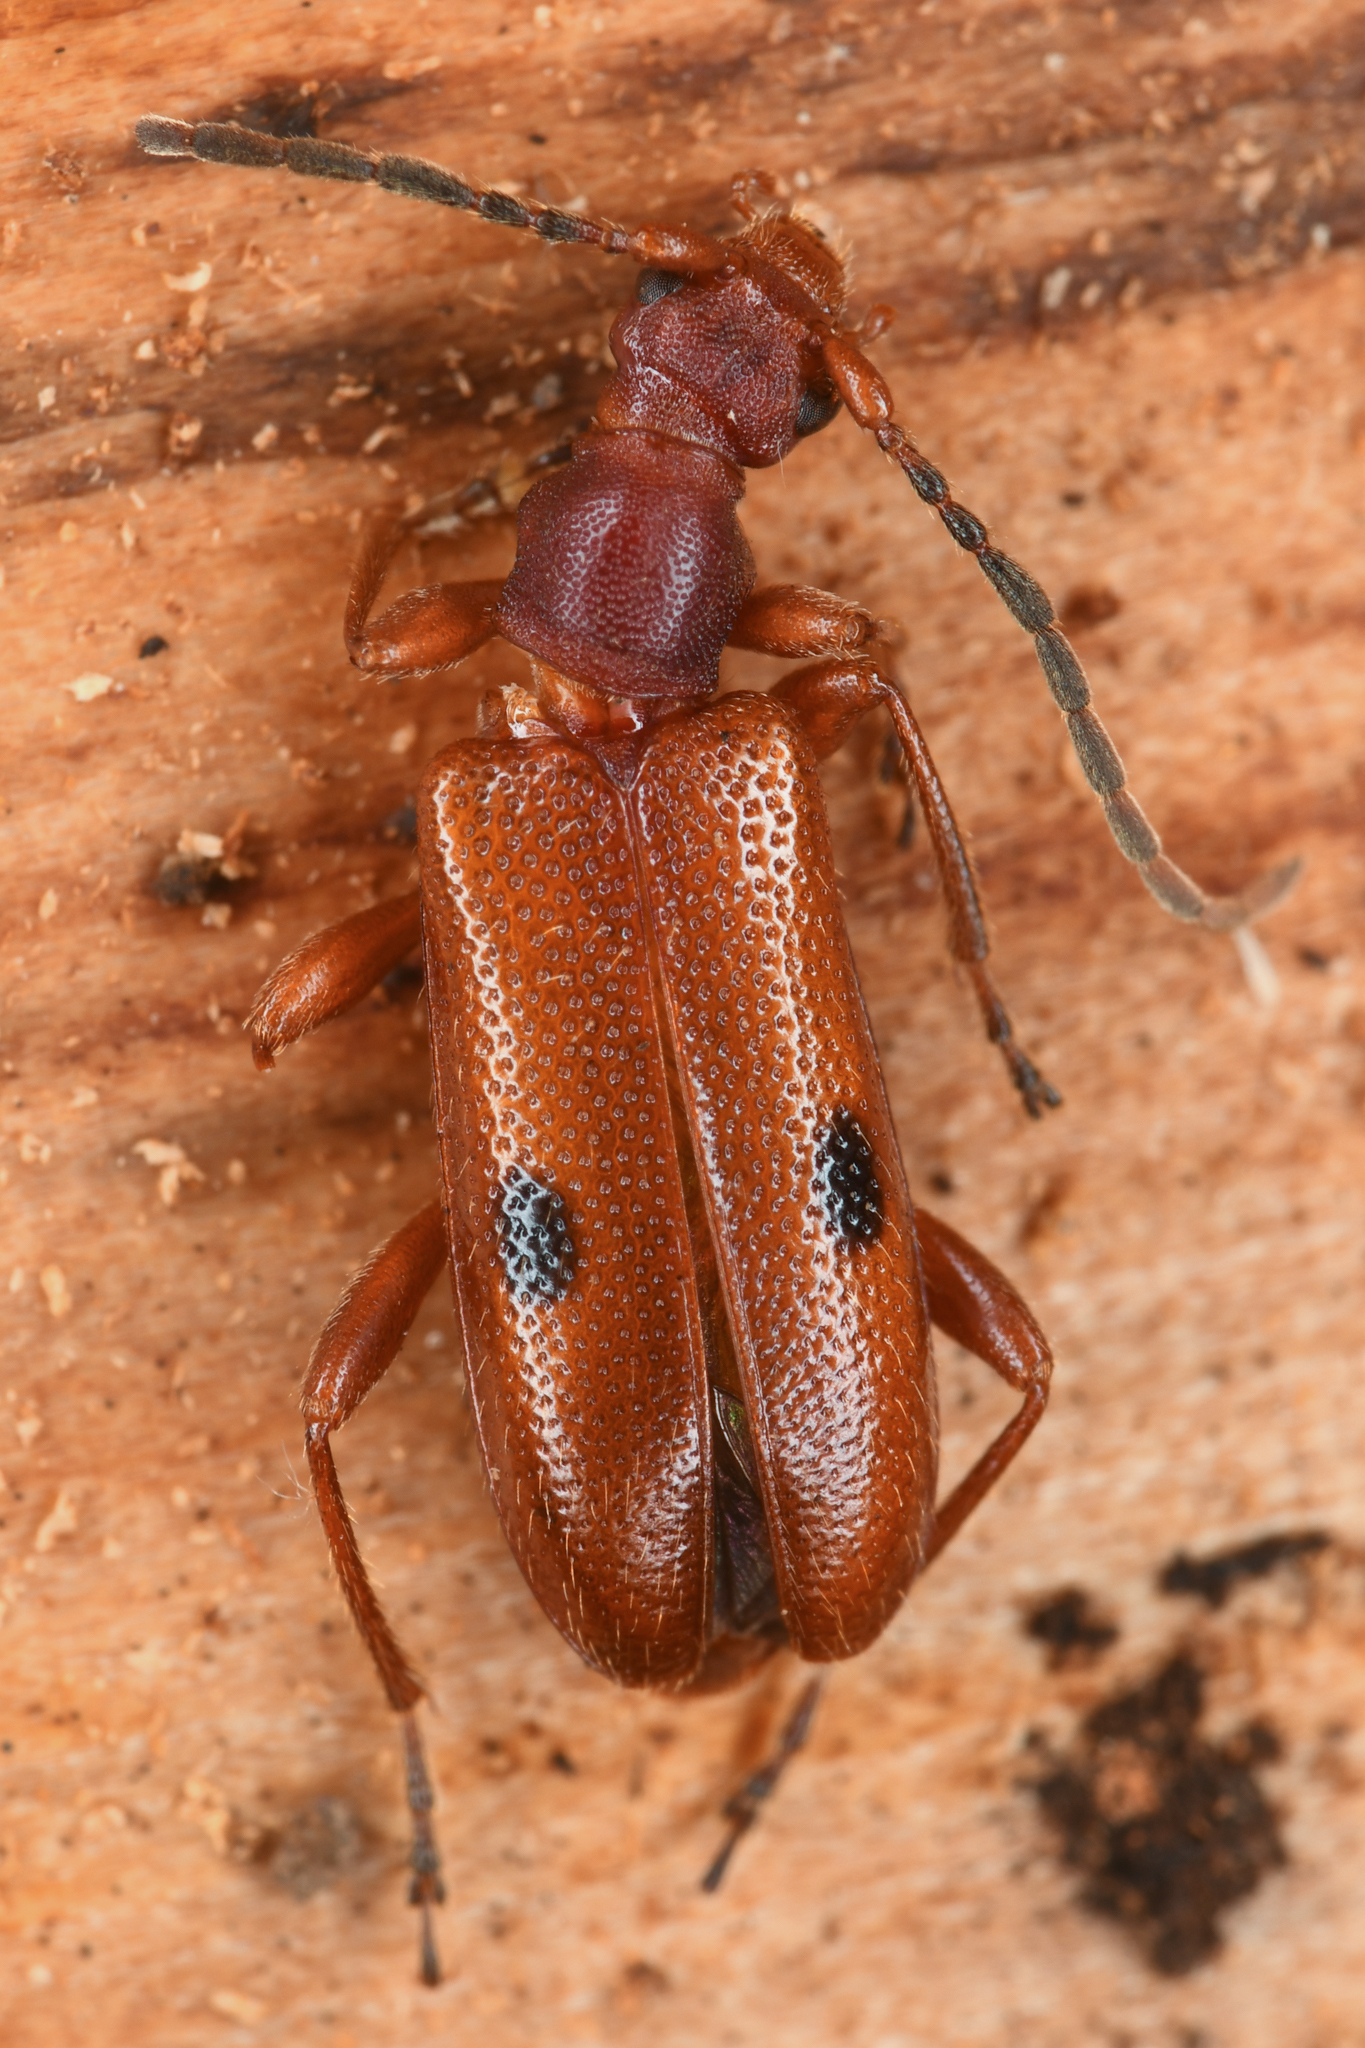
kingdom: Animalia
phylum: Arthropoda
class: Insecta
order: Coleoptera
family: Cerambycidae
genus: Pidonia
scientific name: Pidonia gnathoides
